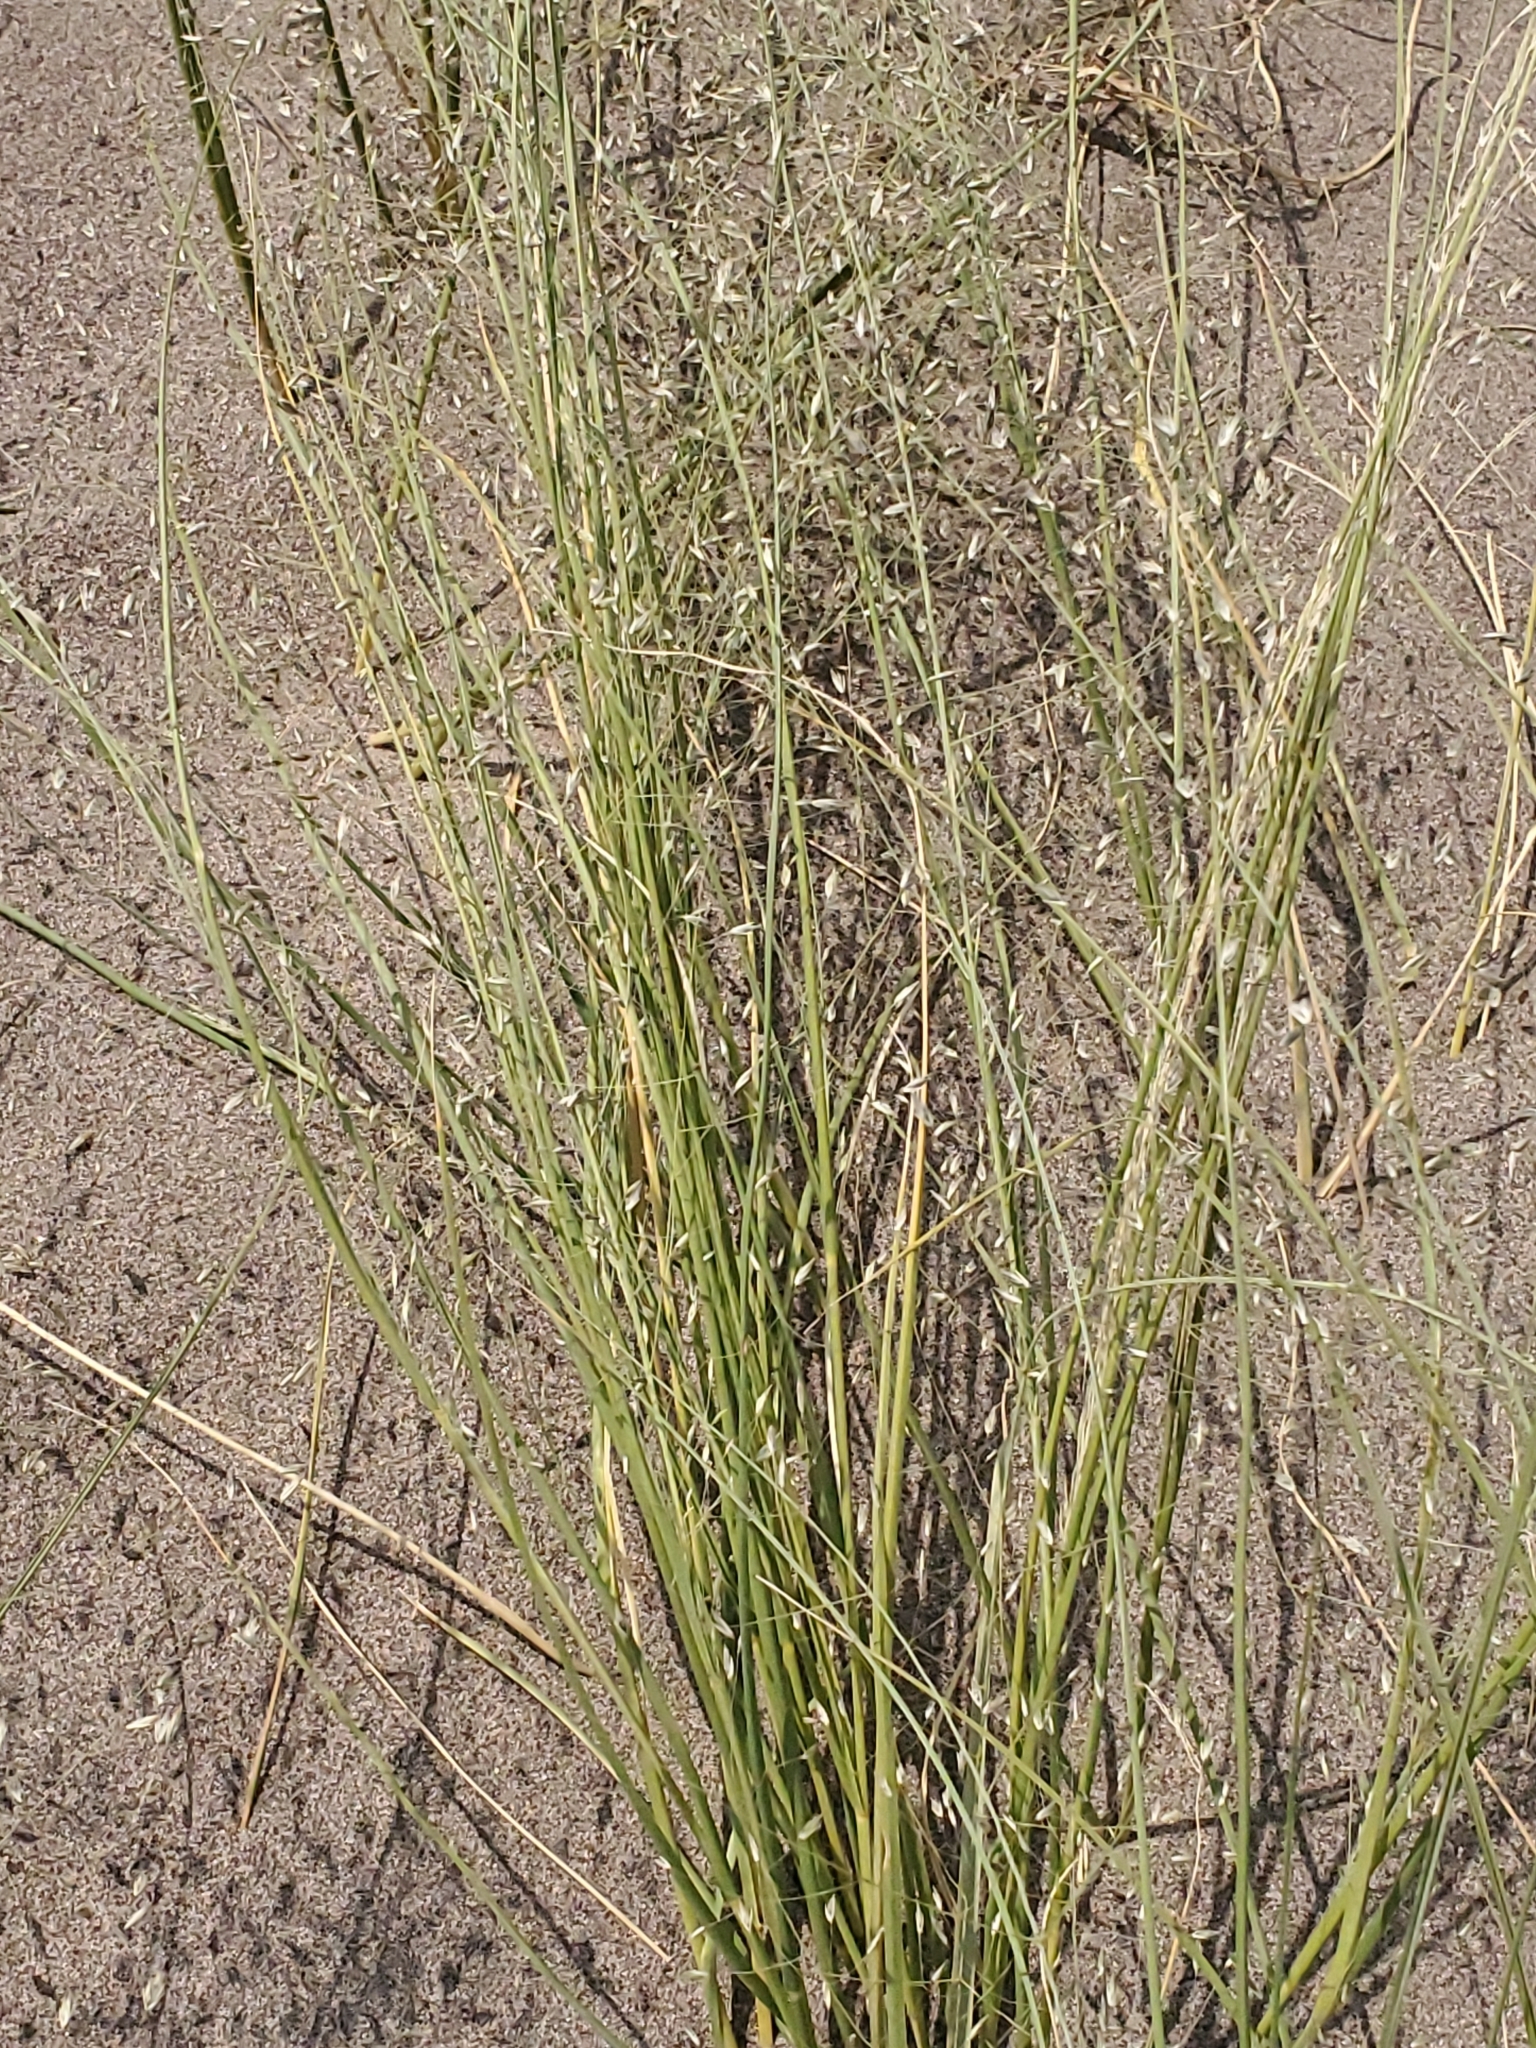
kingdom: Plantae
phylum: Tracheophyta
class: Liliopsida
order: Poales
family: Poaceae
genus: Eriocoma
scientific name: Eriocoma hymenoides
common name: Indian mountain ricegrass
